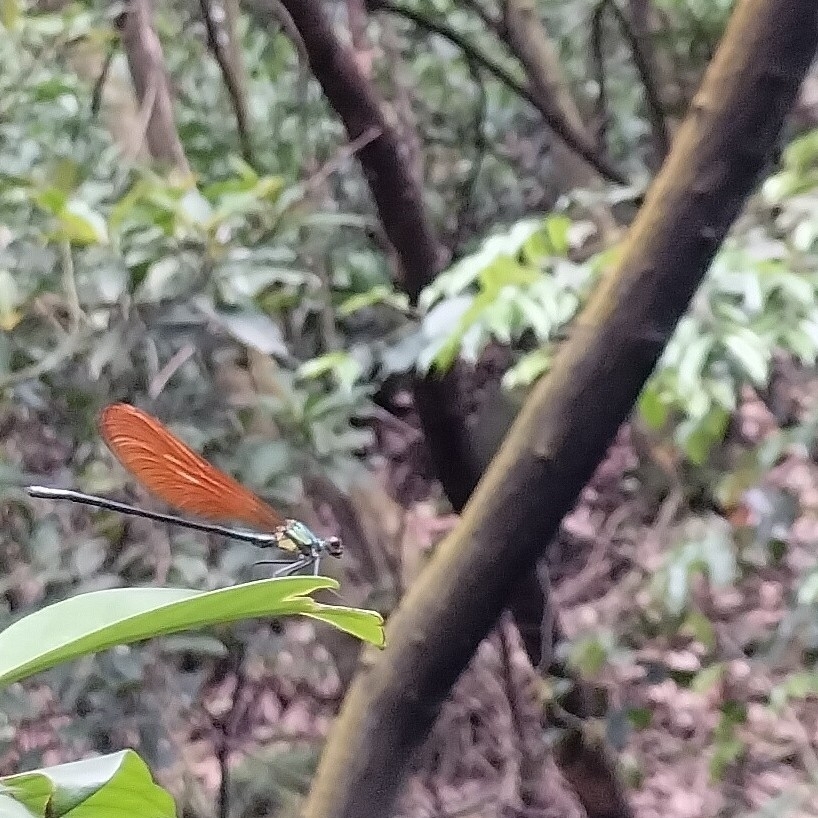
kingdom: Animalia
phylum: Arthropoda
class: Insecta
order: Odonata
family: Calopterygidae
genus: Mnais
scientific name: Mnais tenuis
